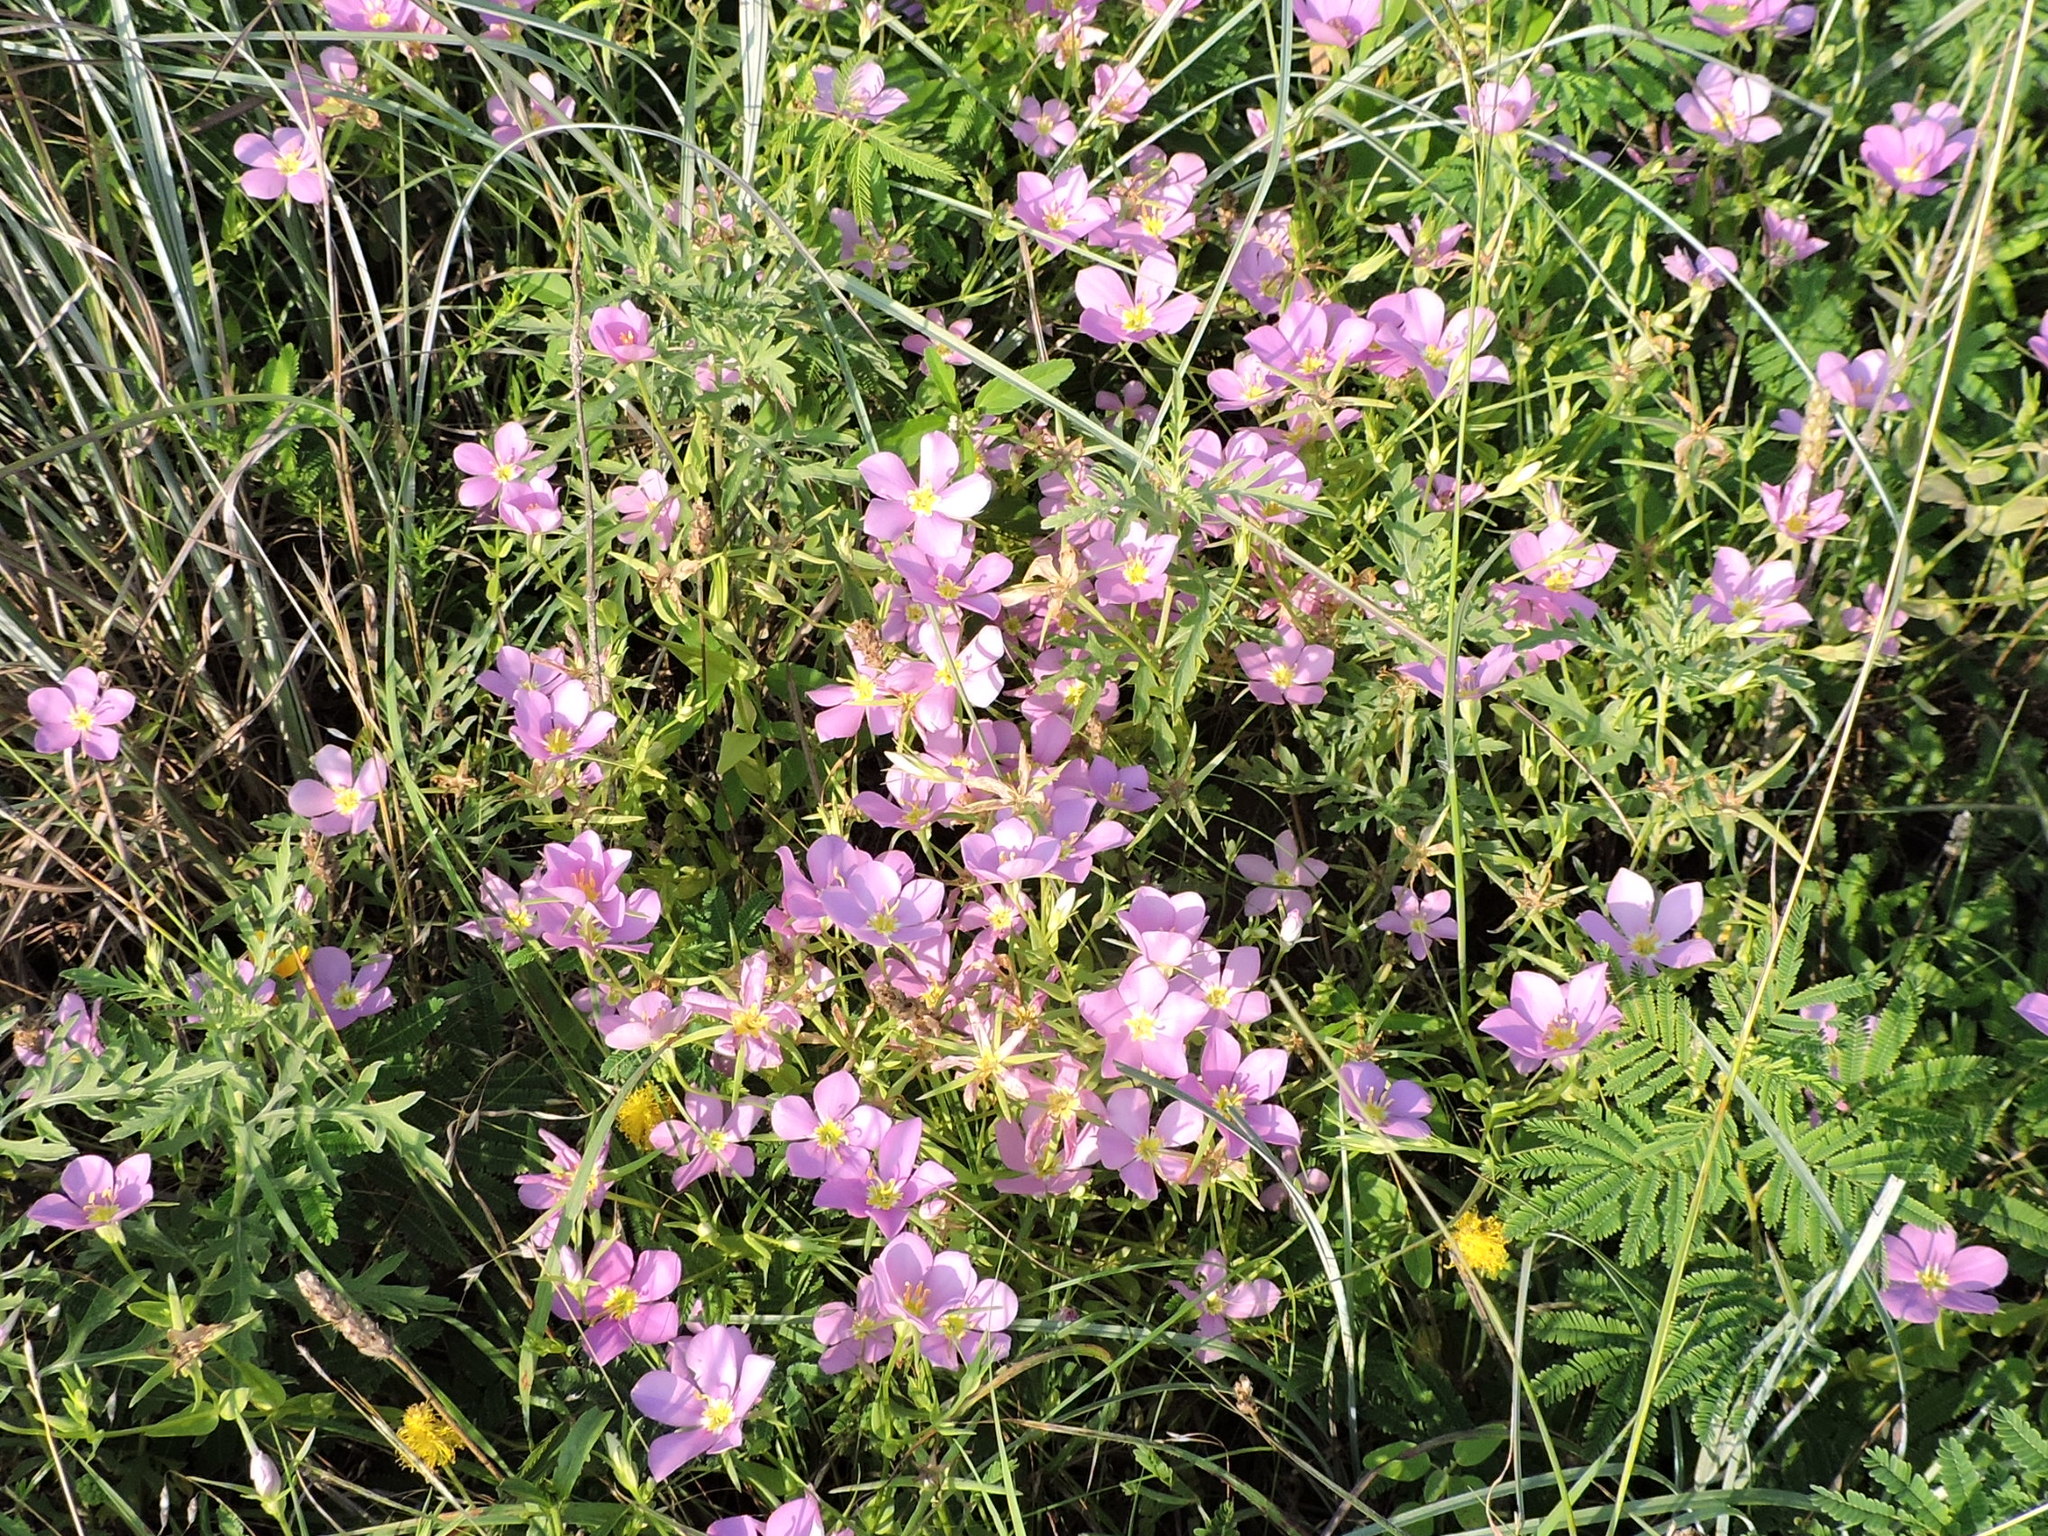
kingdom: Plantae
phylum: Tracheophyta
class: Magnoliopsida
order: Gentianales
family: Gentianaceae
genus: Sabatia
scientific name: Sabatia campestris
